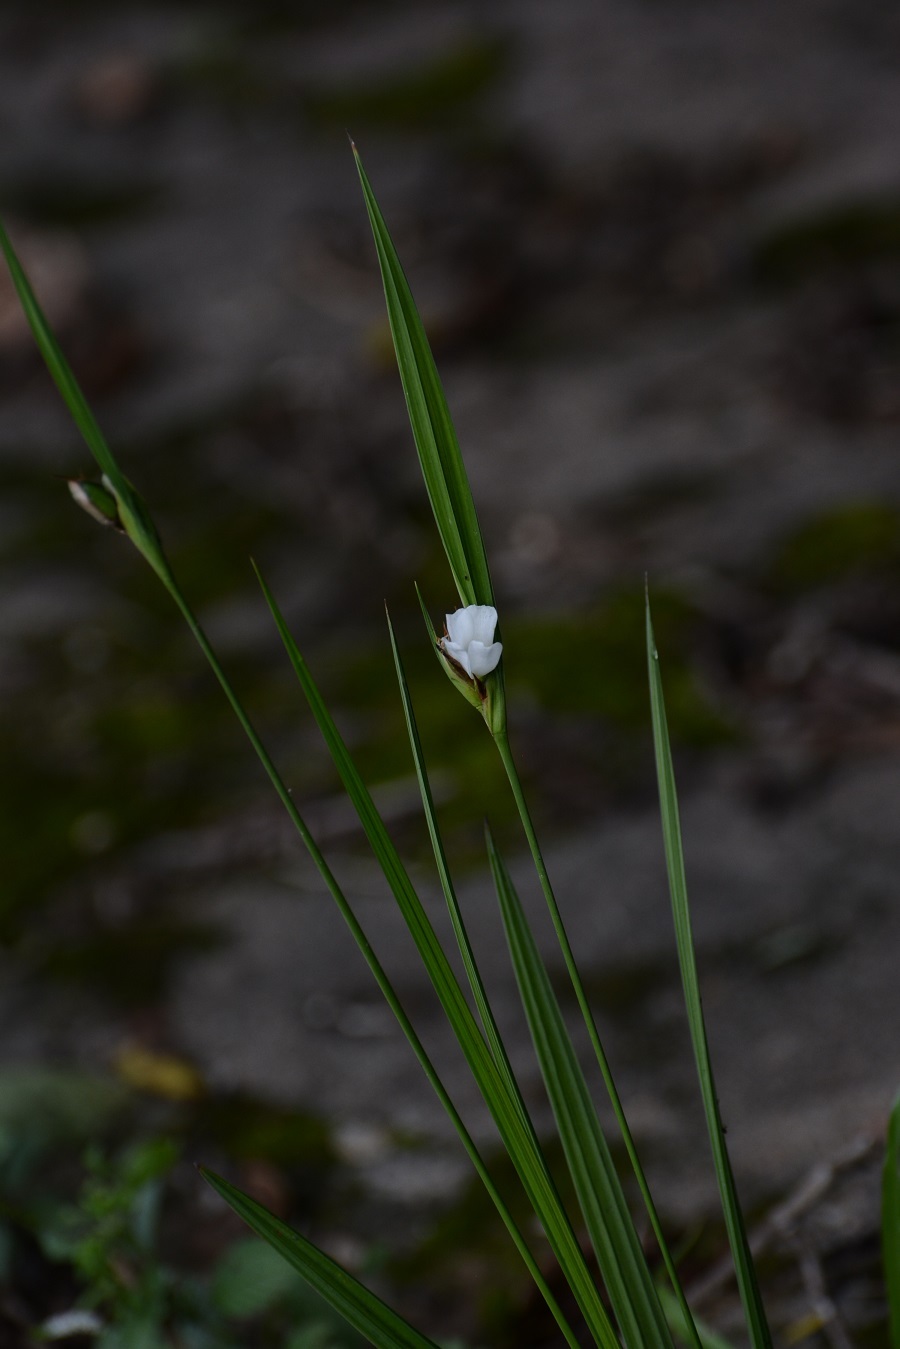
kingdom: Plantae
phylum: Tracheophyta
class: Liliopsida
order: Asparagales
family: Iridaceae
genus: Cipura
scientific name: Cipura campanulata
